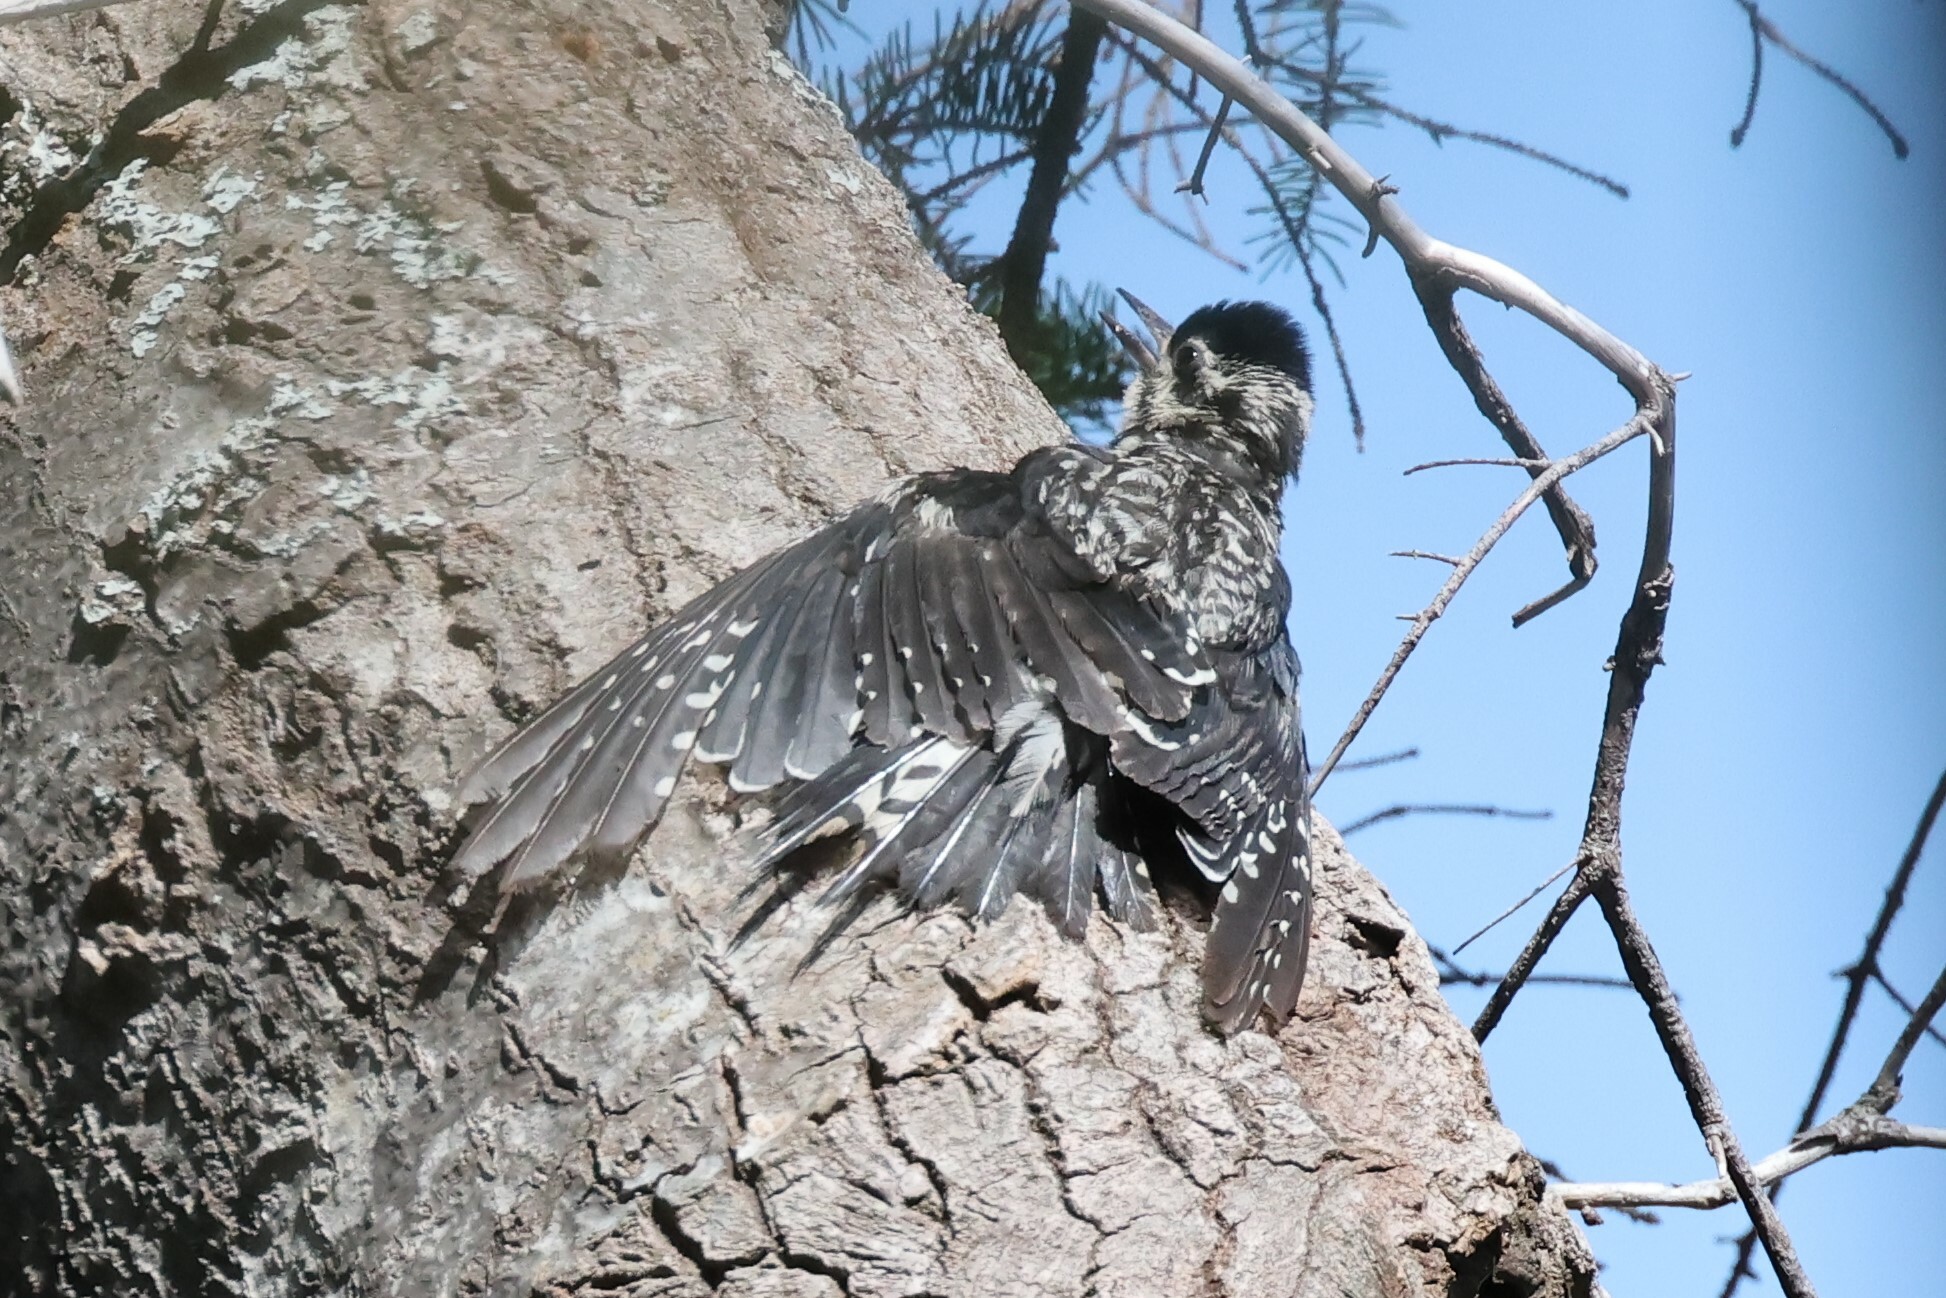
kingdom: Animalia
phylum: Chordata
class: Aves
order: Piciformes
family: Picidae
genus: Sphyrapicus
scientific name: Sphyrapicus varius
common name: Yellow-bellied sapsucker
